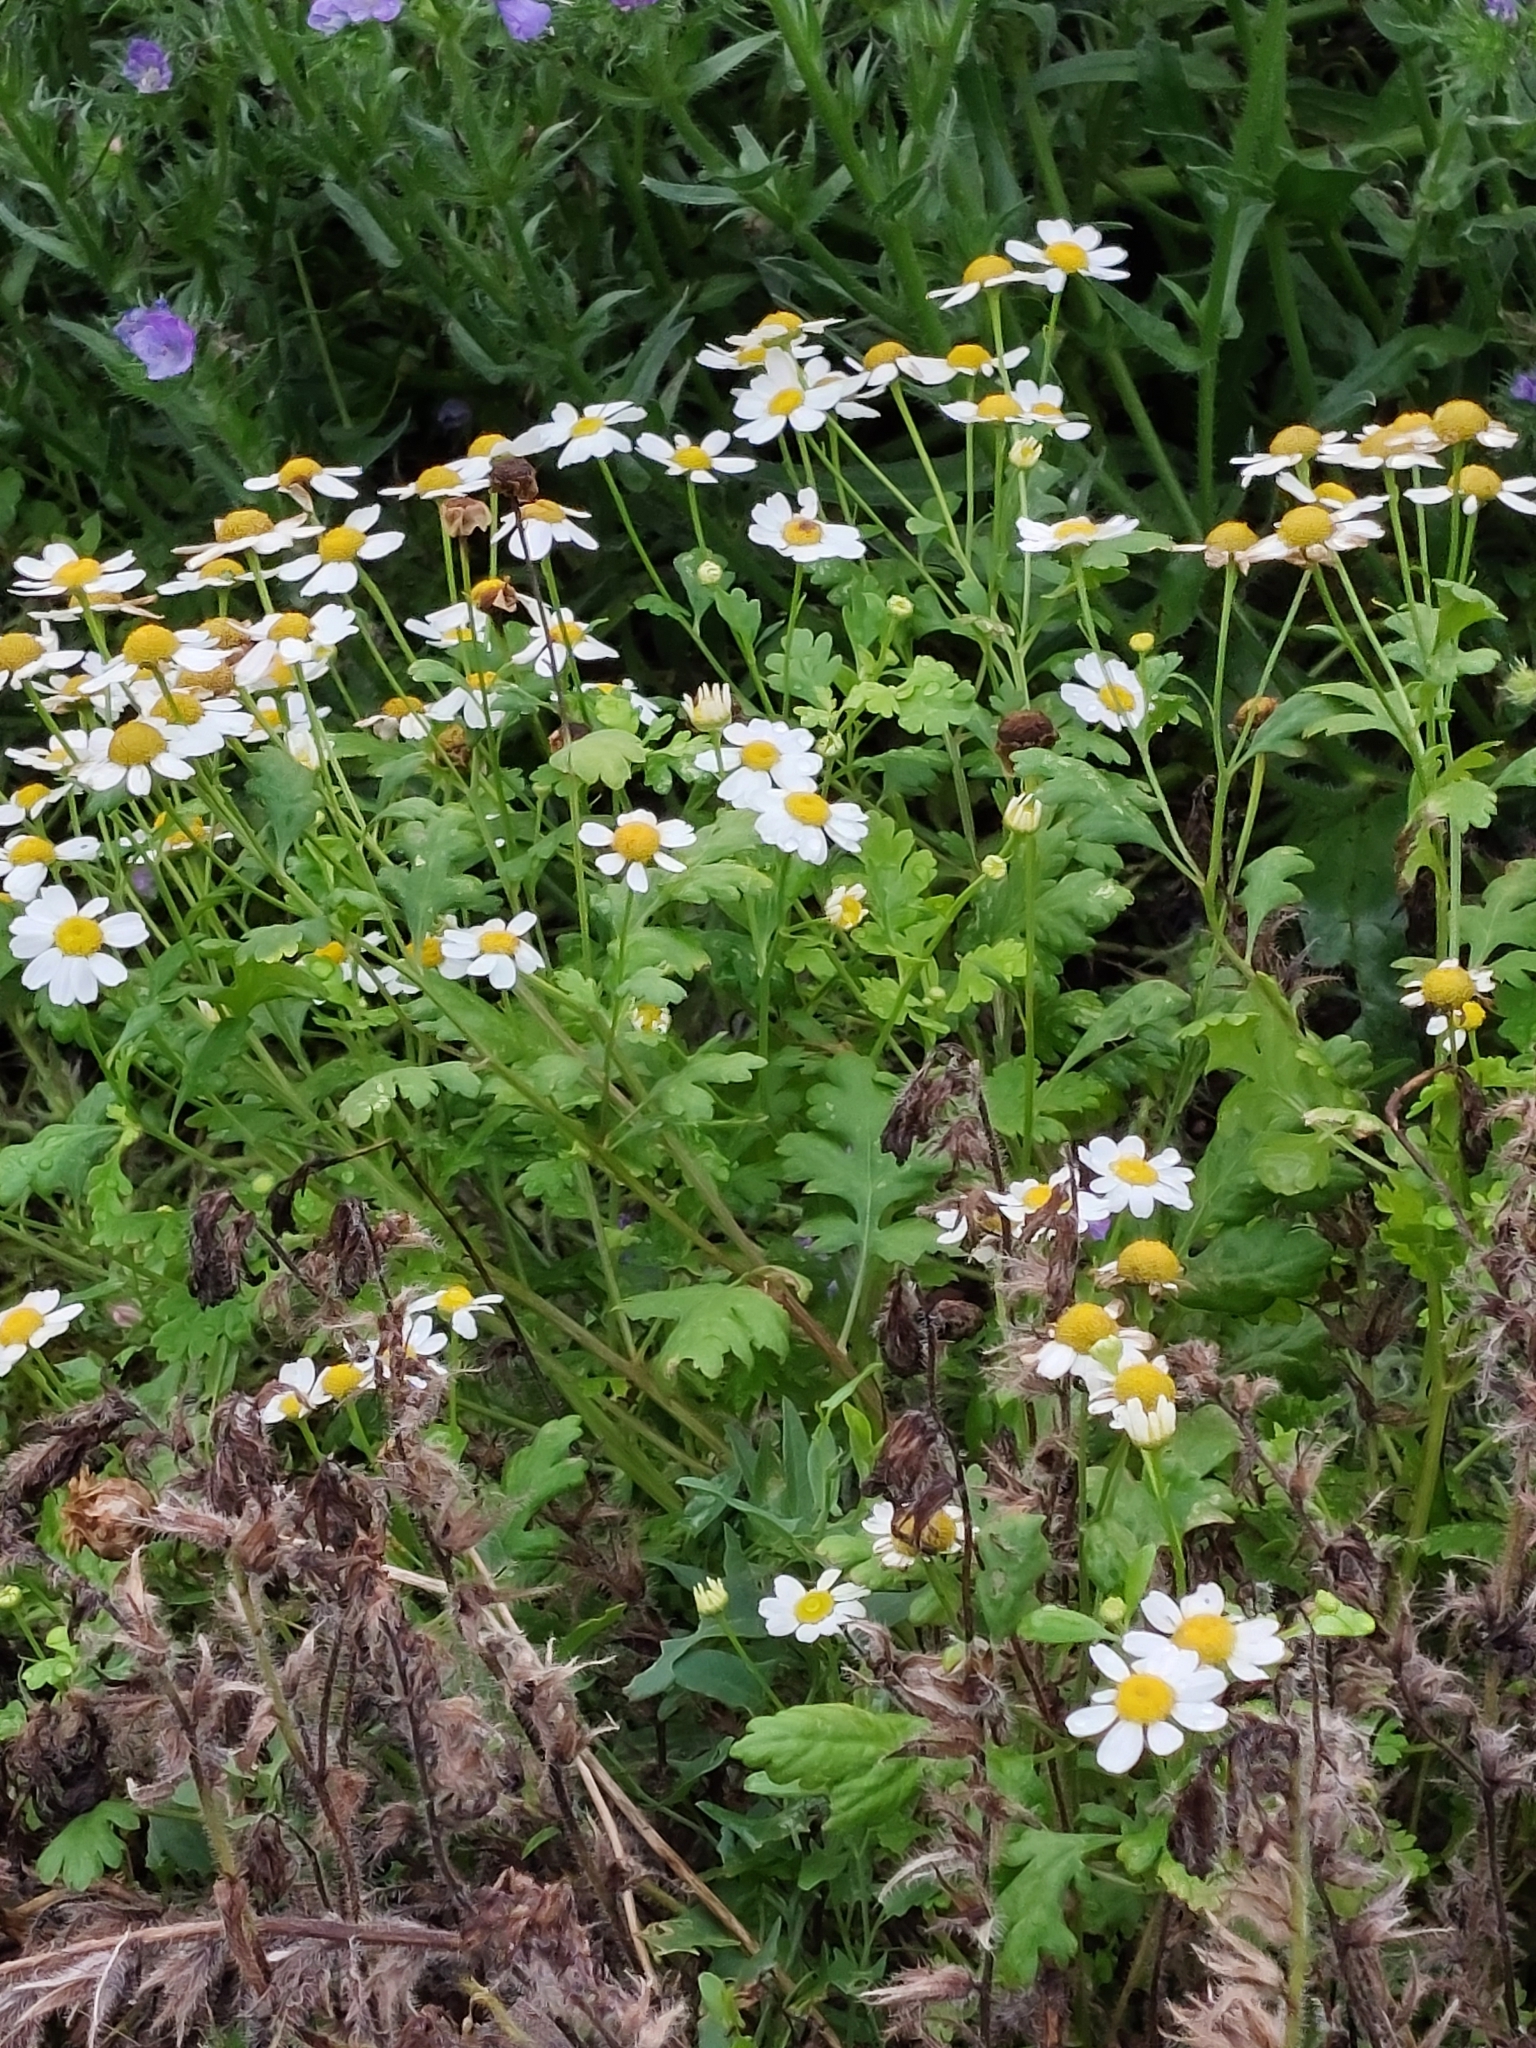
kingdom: Plantae
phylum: Tracheophyta
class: Magnoliopsida
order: Asterales
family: Asteraceae
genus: Tanacetum
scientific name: Tanacetum parthenium
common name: Feverfew
